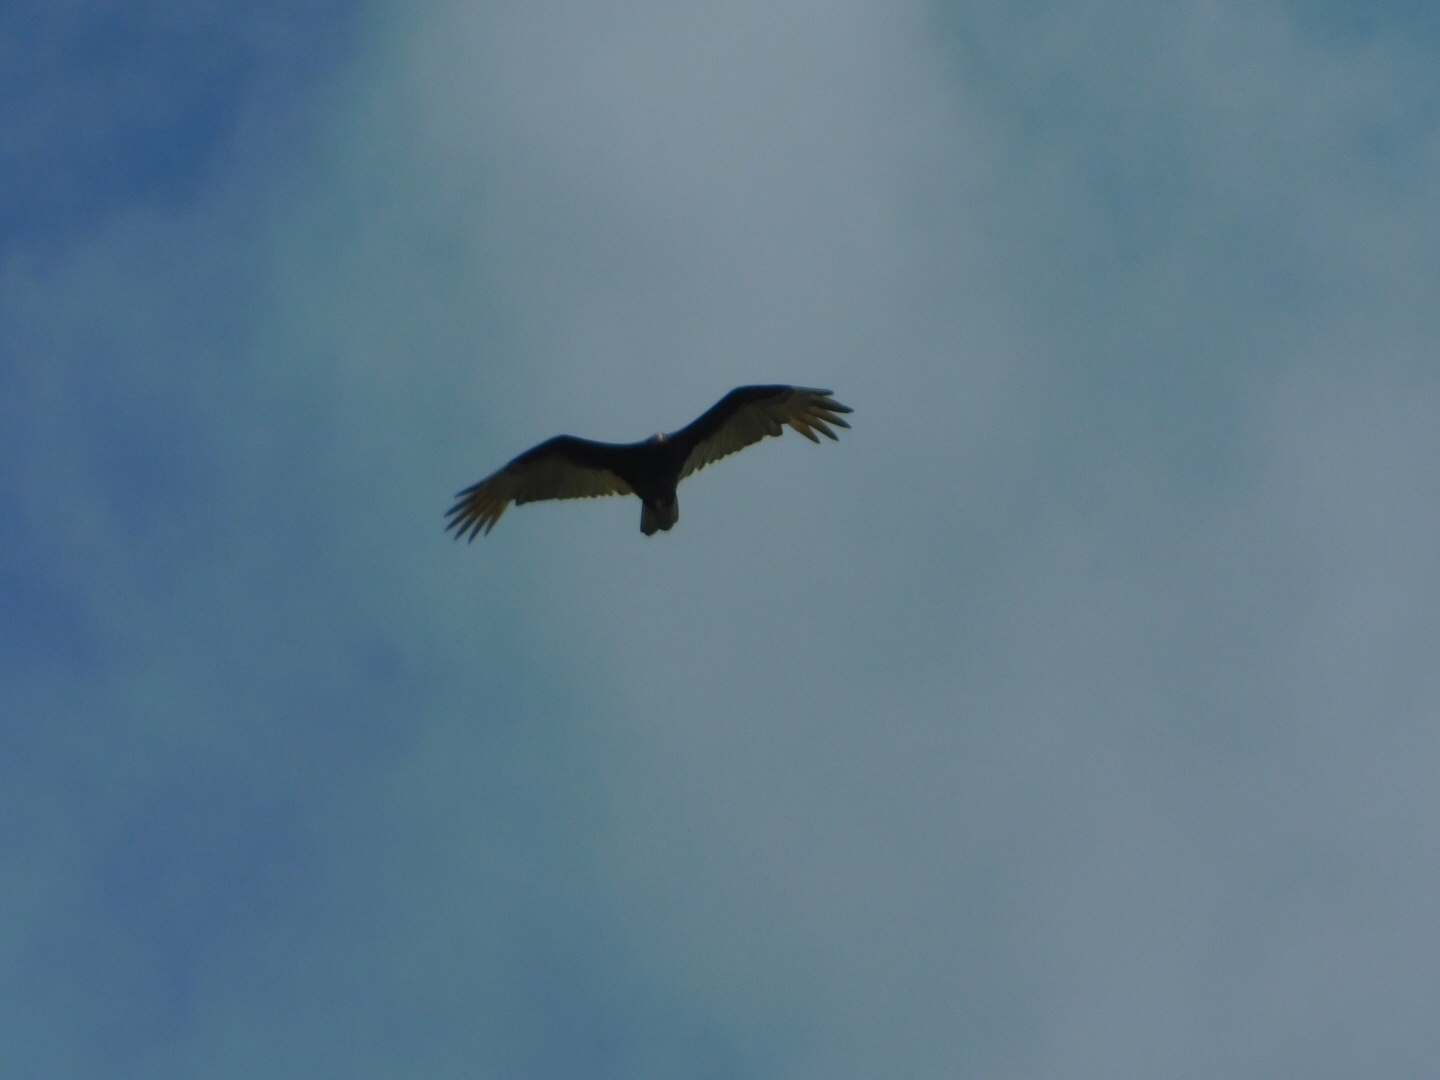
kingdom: Animalia
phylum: Chordata
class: Aves
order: Accipitriformes
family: Cathartidae
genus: Cathartes
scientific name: Cathartes aura
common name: Turkey vulture
